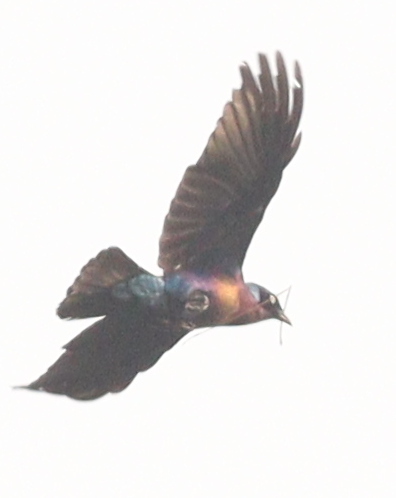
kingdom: Animalia
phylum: Chordata
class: Aves
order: Passeriformes
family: Sturnidae
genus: Lamprotornis
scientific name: Lamprotornis splendidus
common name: Splendid starling
